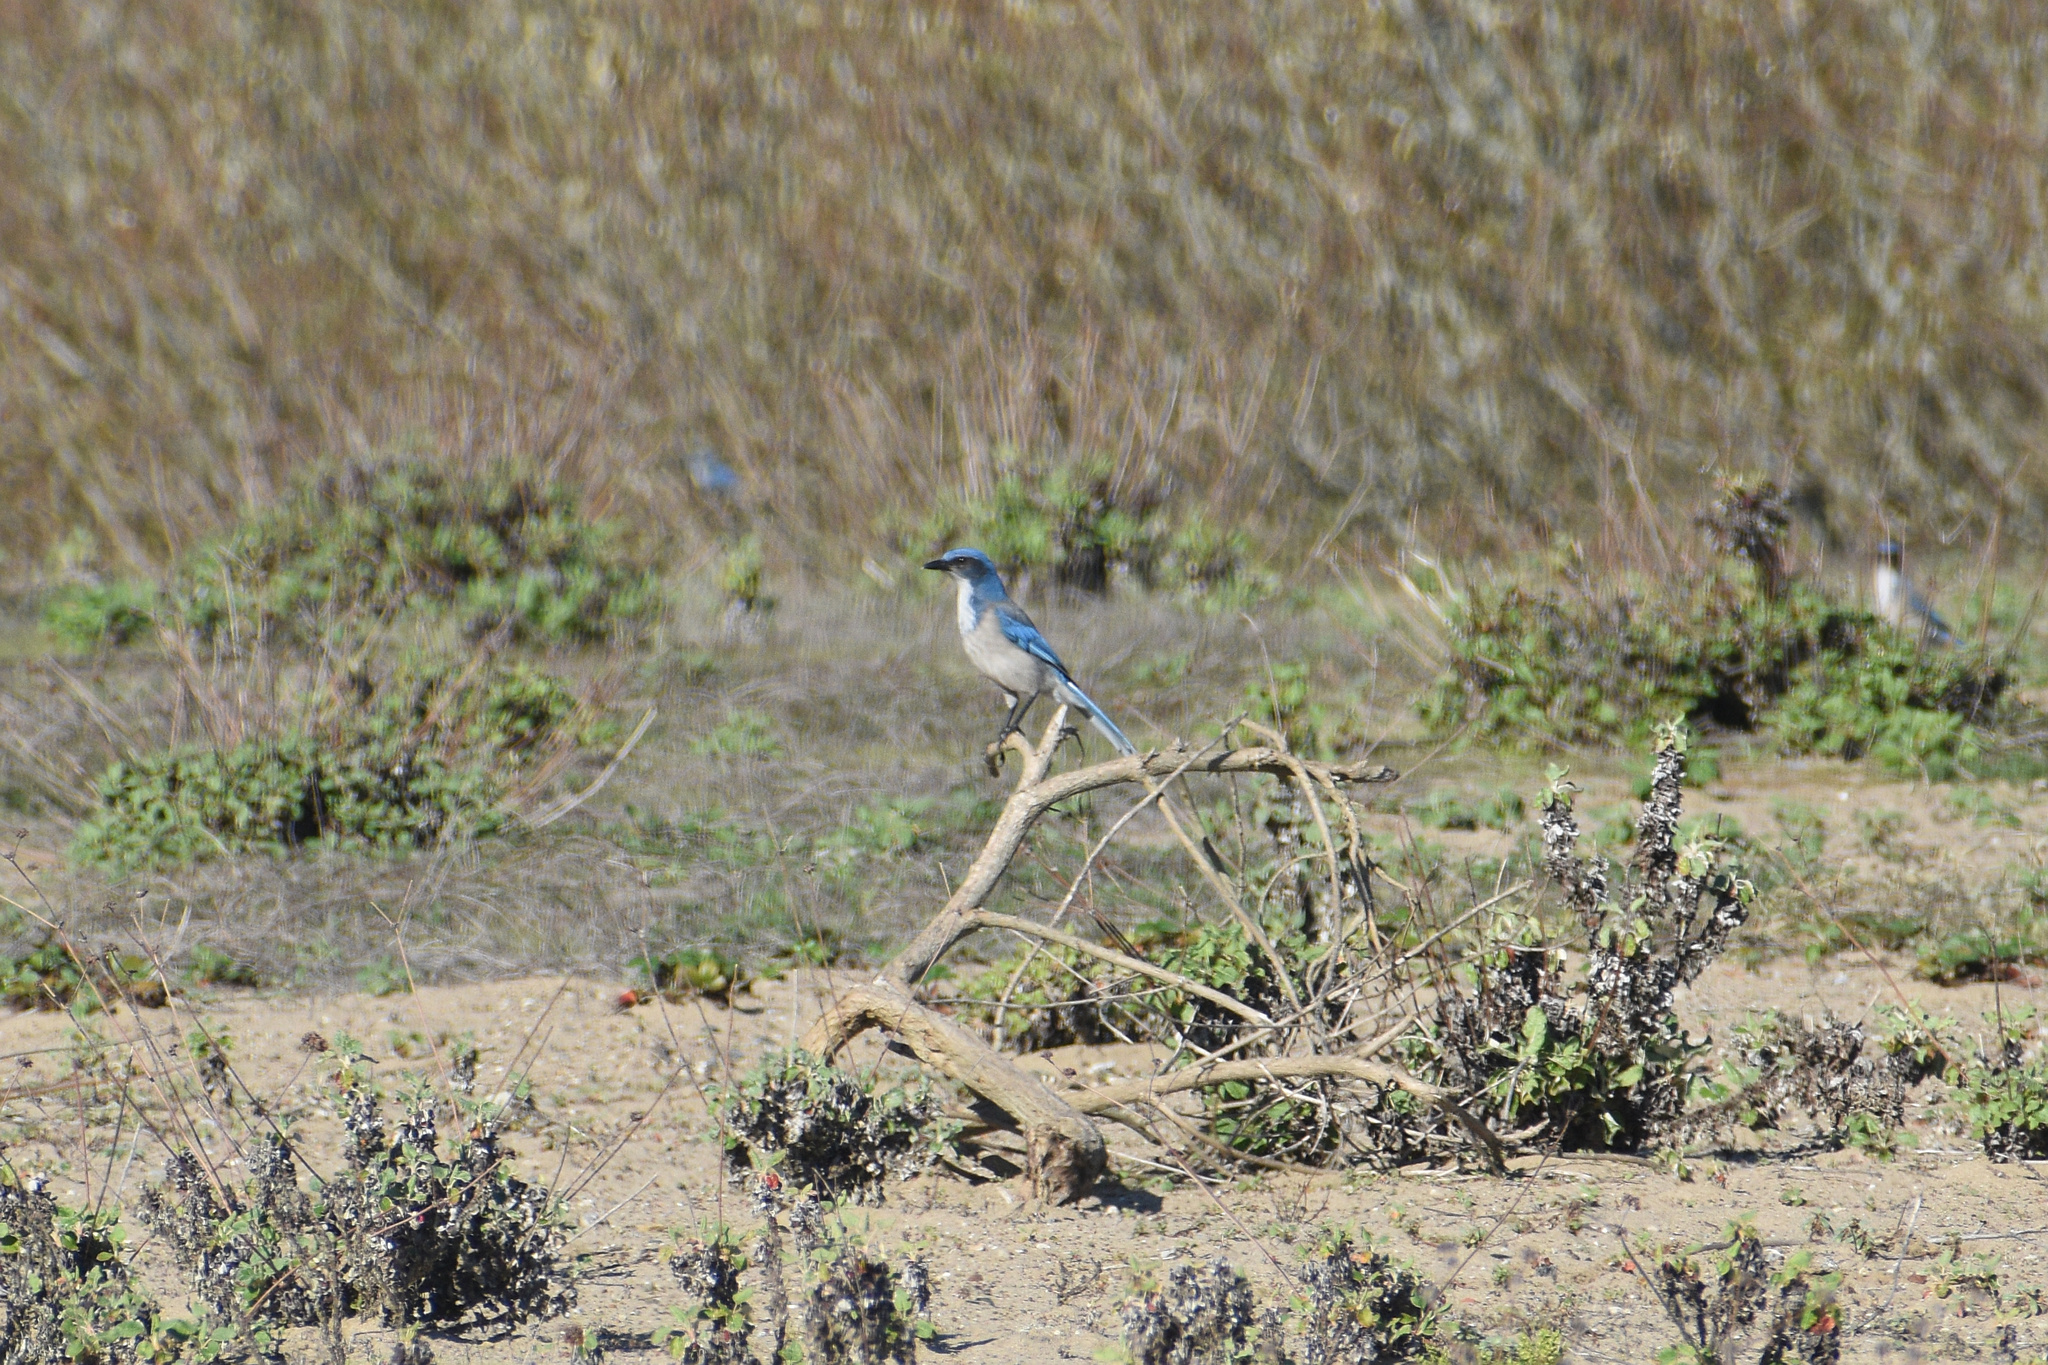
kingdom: Animalia
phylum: Chordata
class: Aves
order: Passeriformes
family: Corvidae
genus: Aphelocoma
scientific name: Aphelocoma californica
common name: California scrub-jay
